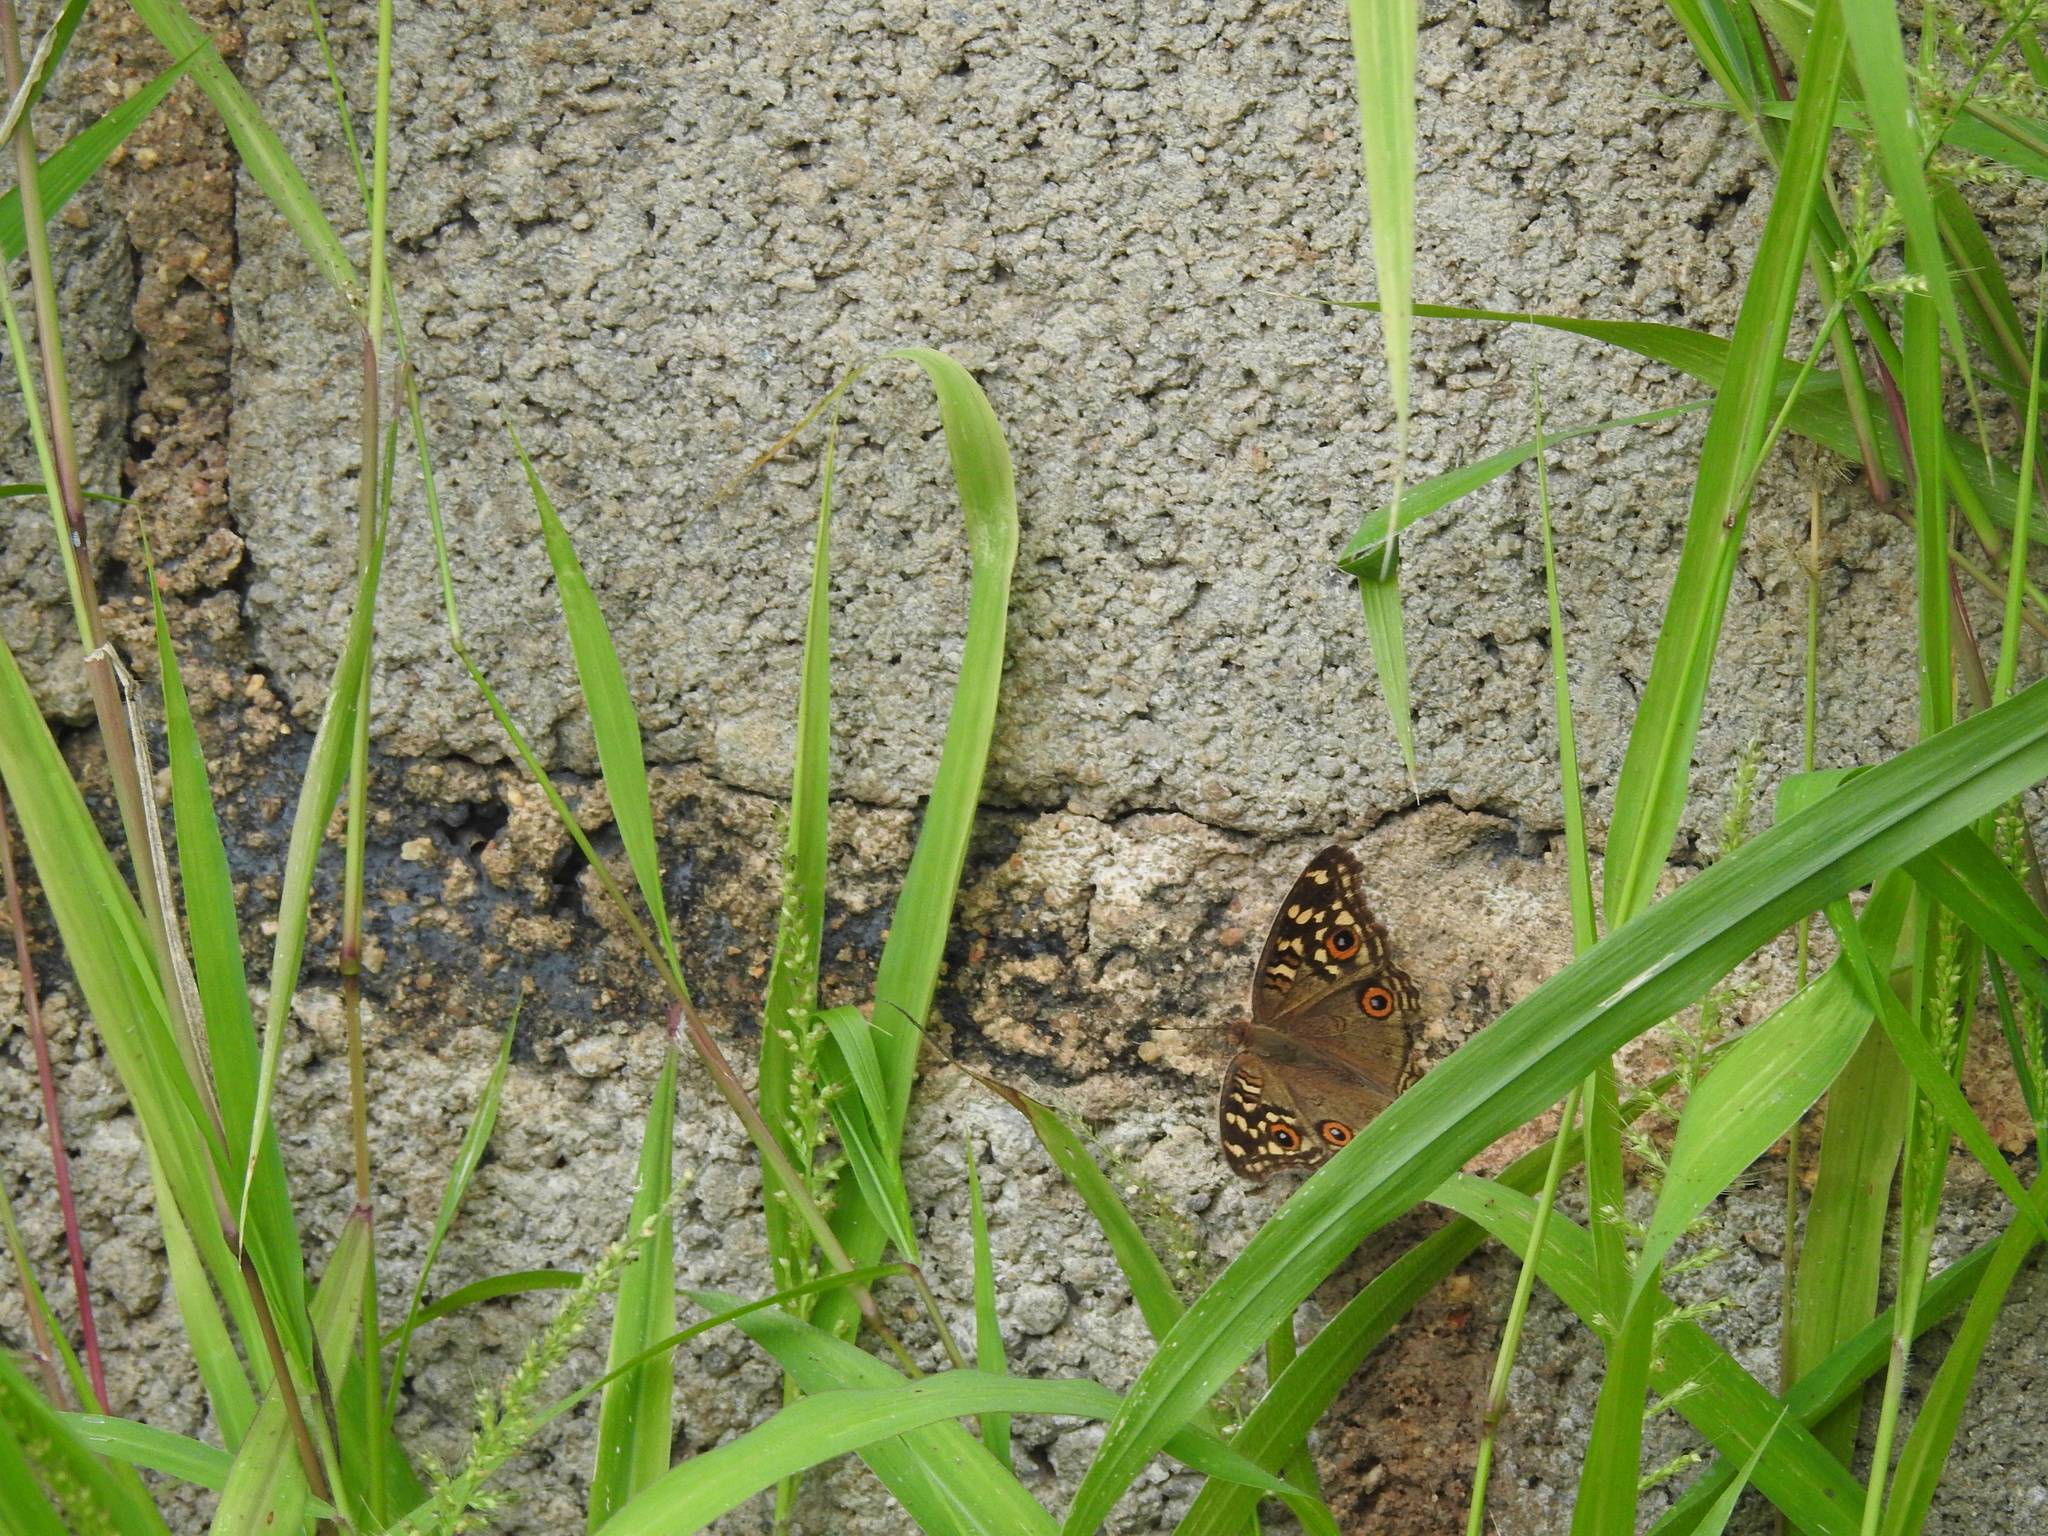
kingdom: Animalia
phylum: Arthropoda
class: Insecta
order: Lepidoptera
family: Nymphalidae
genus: Junonia
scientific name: Junonia lemonias
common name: Lemon pansy
